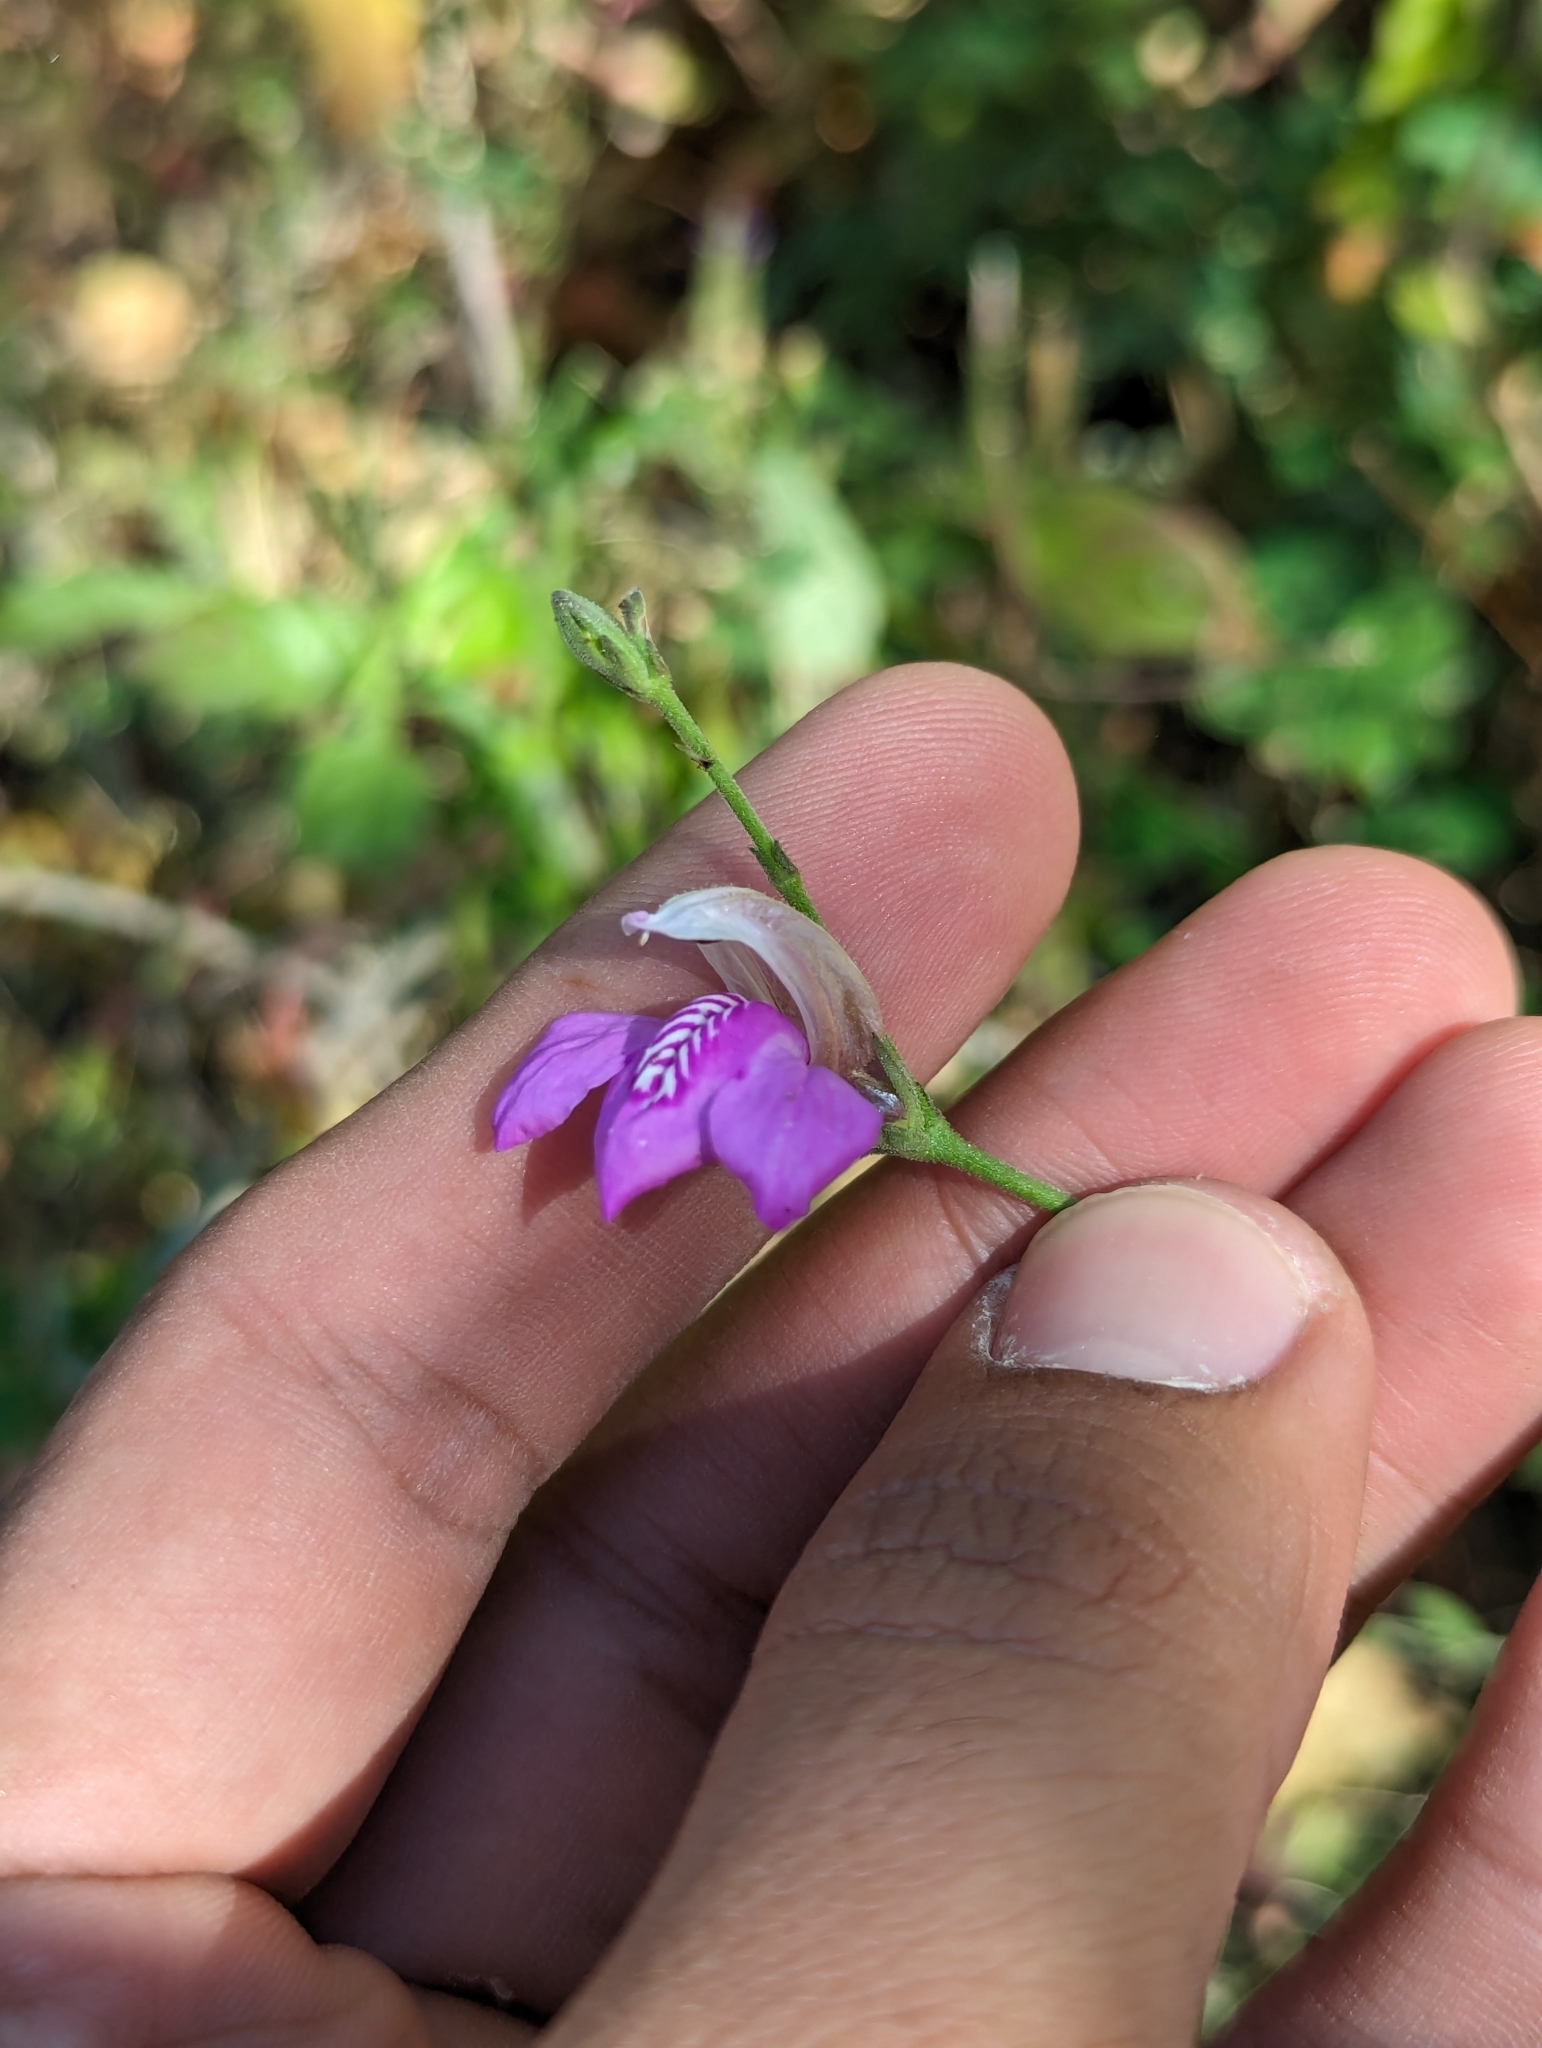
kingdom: Plantae
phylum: Tracheophyta
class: Magnoliopsida
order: Lamiales
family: Acanthaceae
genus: Justicia
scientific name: Justicia insolita
